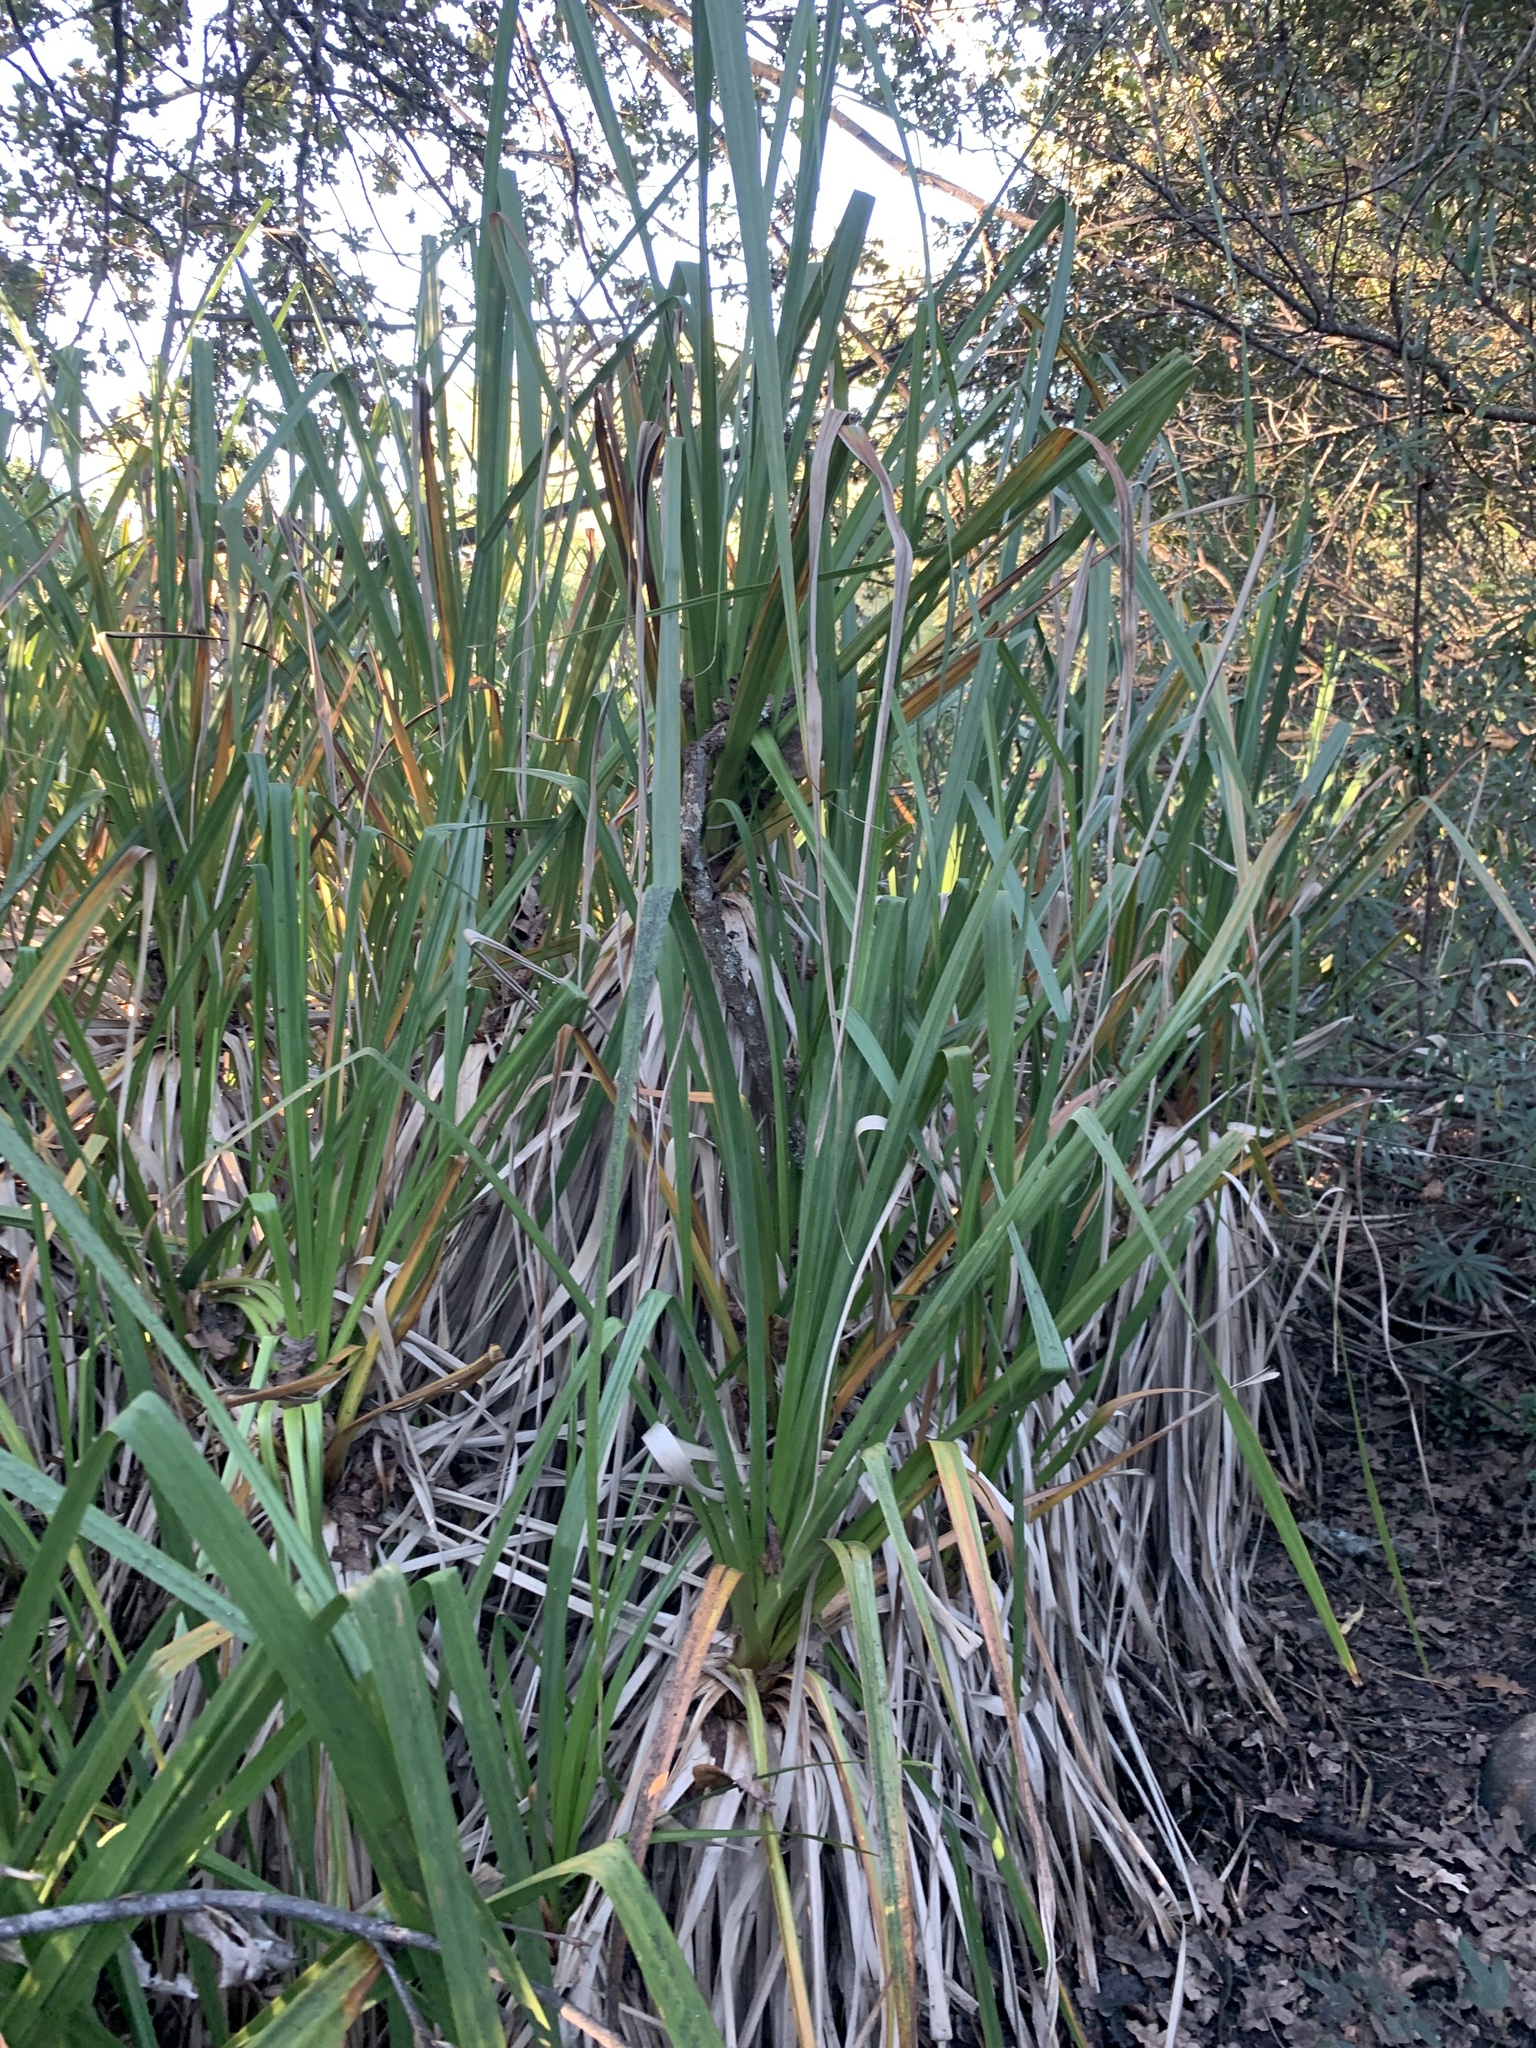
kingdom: Plantae
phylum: Tracheophyta
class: Liliopsida
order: Poales
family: Thurniaceae
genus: Prionium
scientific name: Prionium serratum
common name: Palmiet
